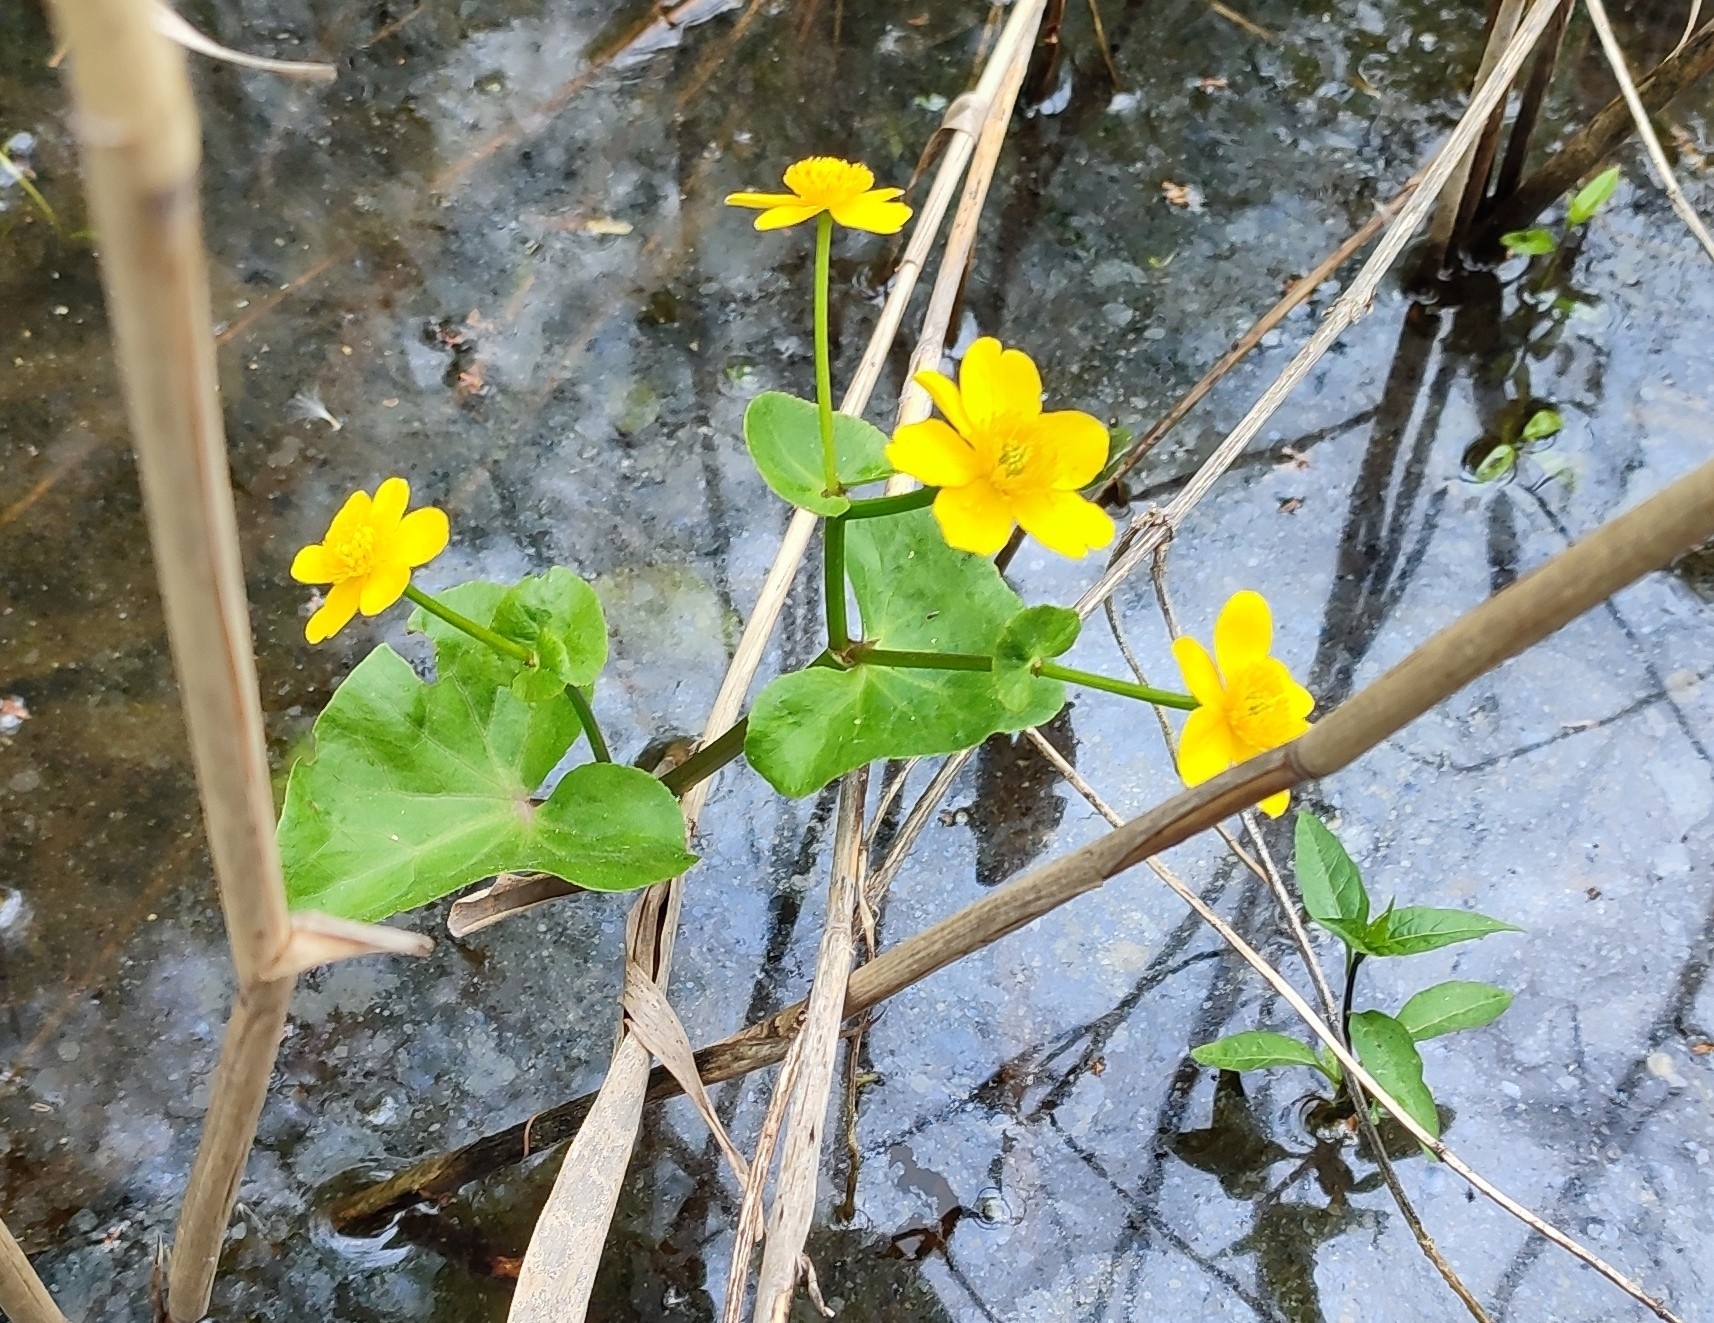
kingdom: Plantae
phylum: Tracheophyta
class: Magnoliopsida
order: Ranunculales
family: Ranunculaceae
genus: Caltha
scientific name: Caltha palustris
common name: Marsh marigold
